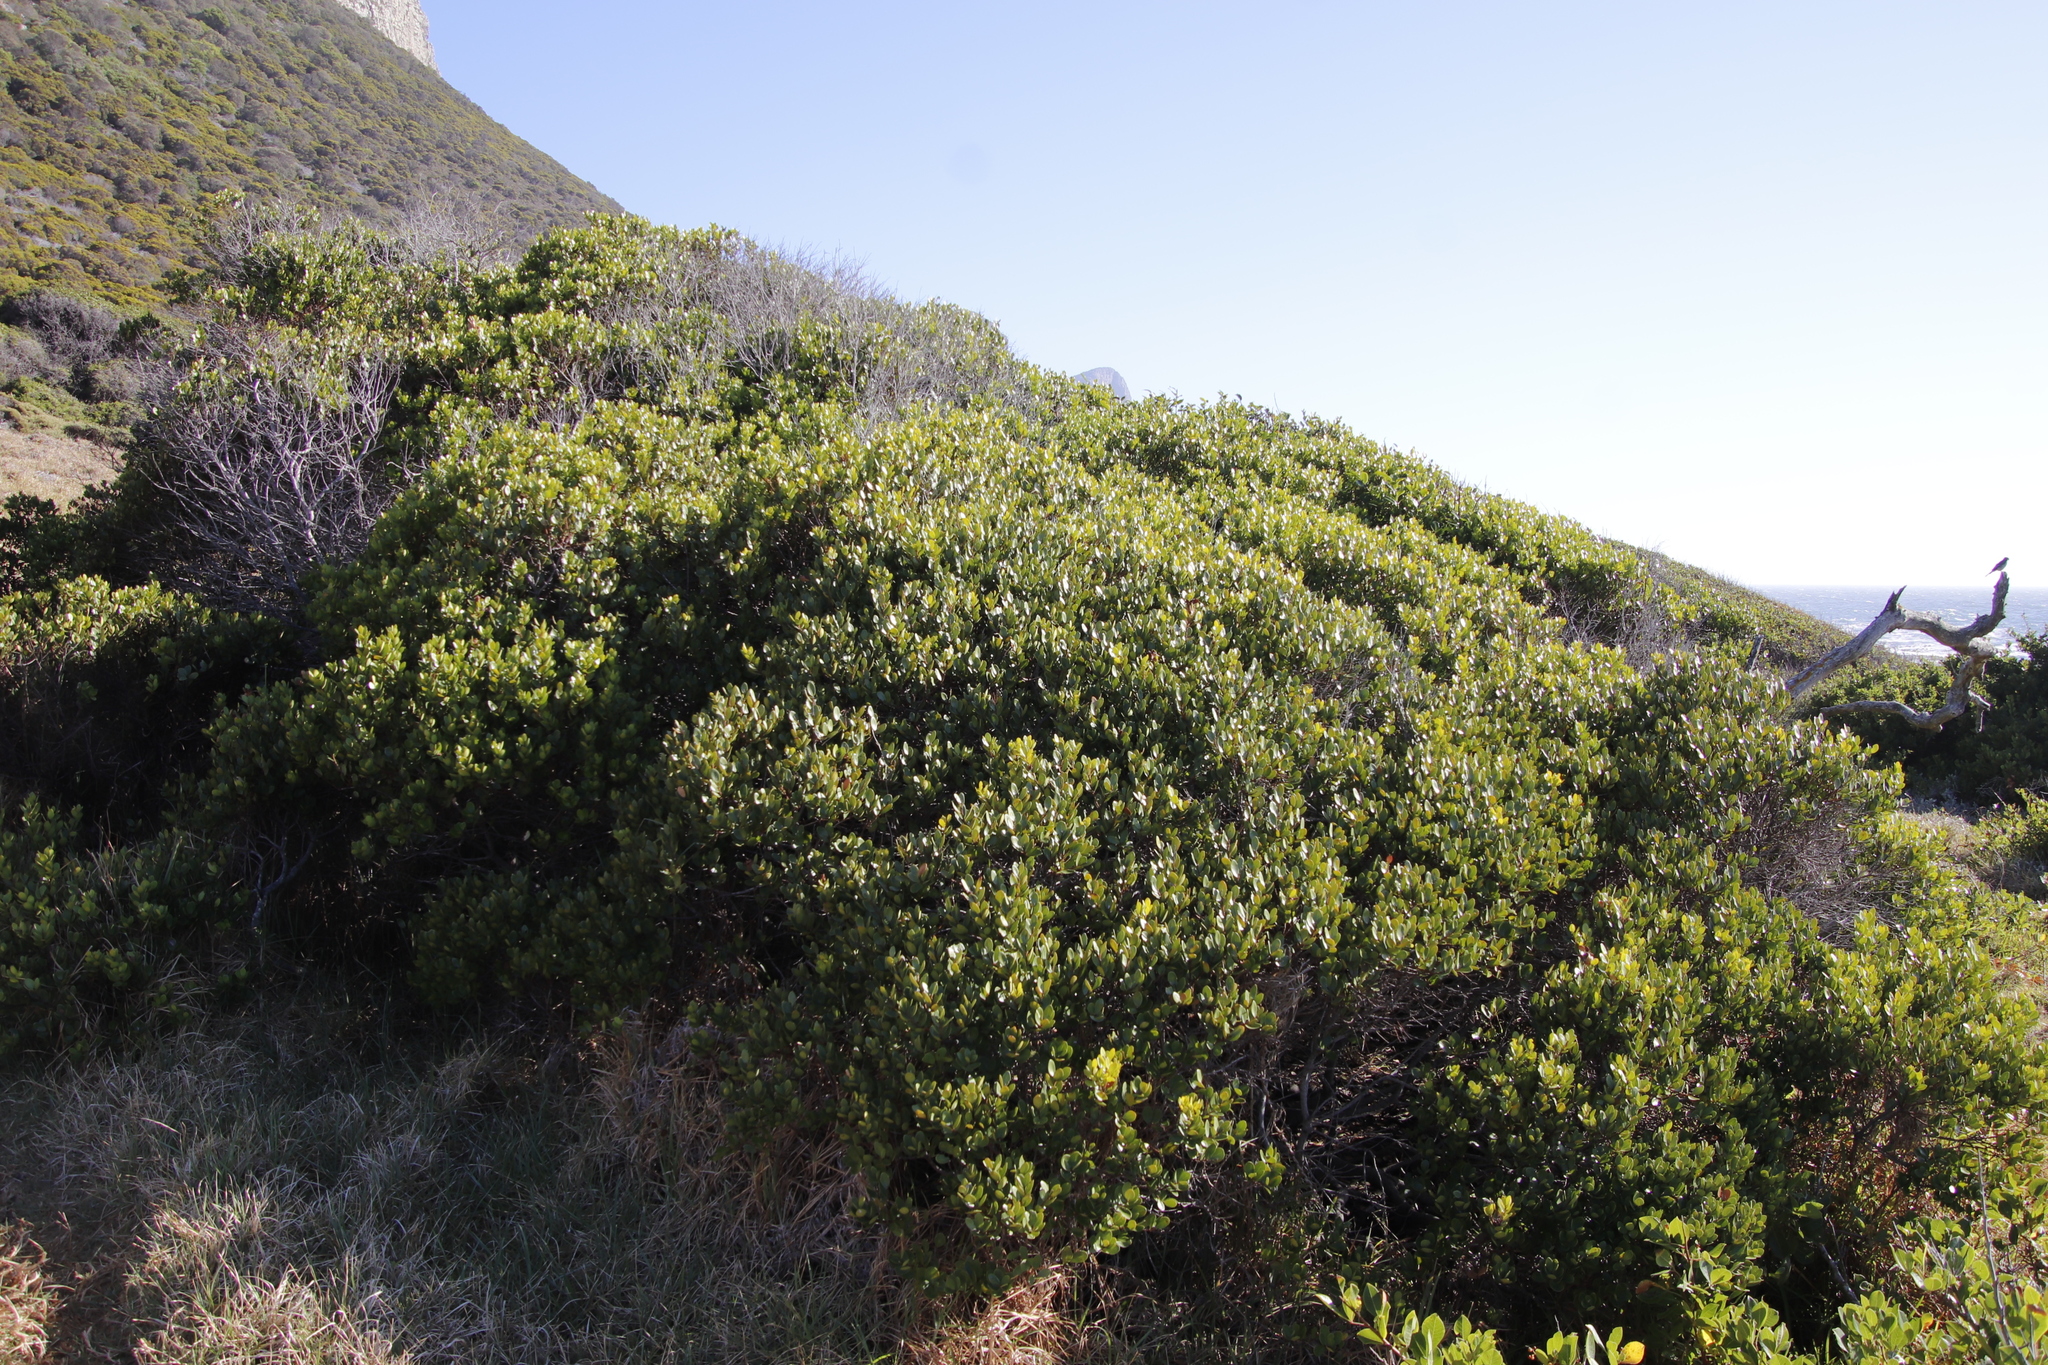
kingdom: Plantae
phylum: Tracheophyta
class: Magnoliopsida
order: Ericales
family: Ebenaceae
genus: Euclea
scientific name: Euclea racemosa
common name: Dune guarri
